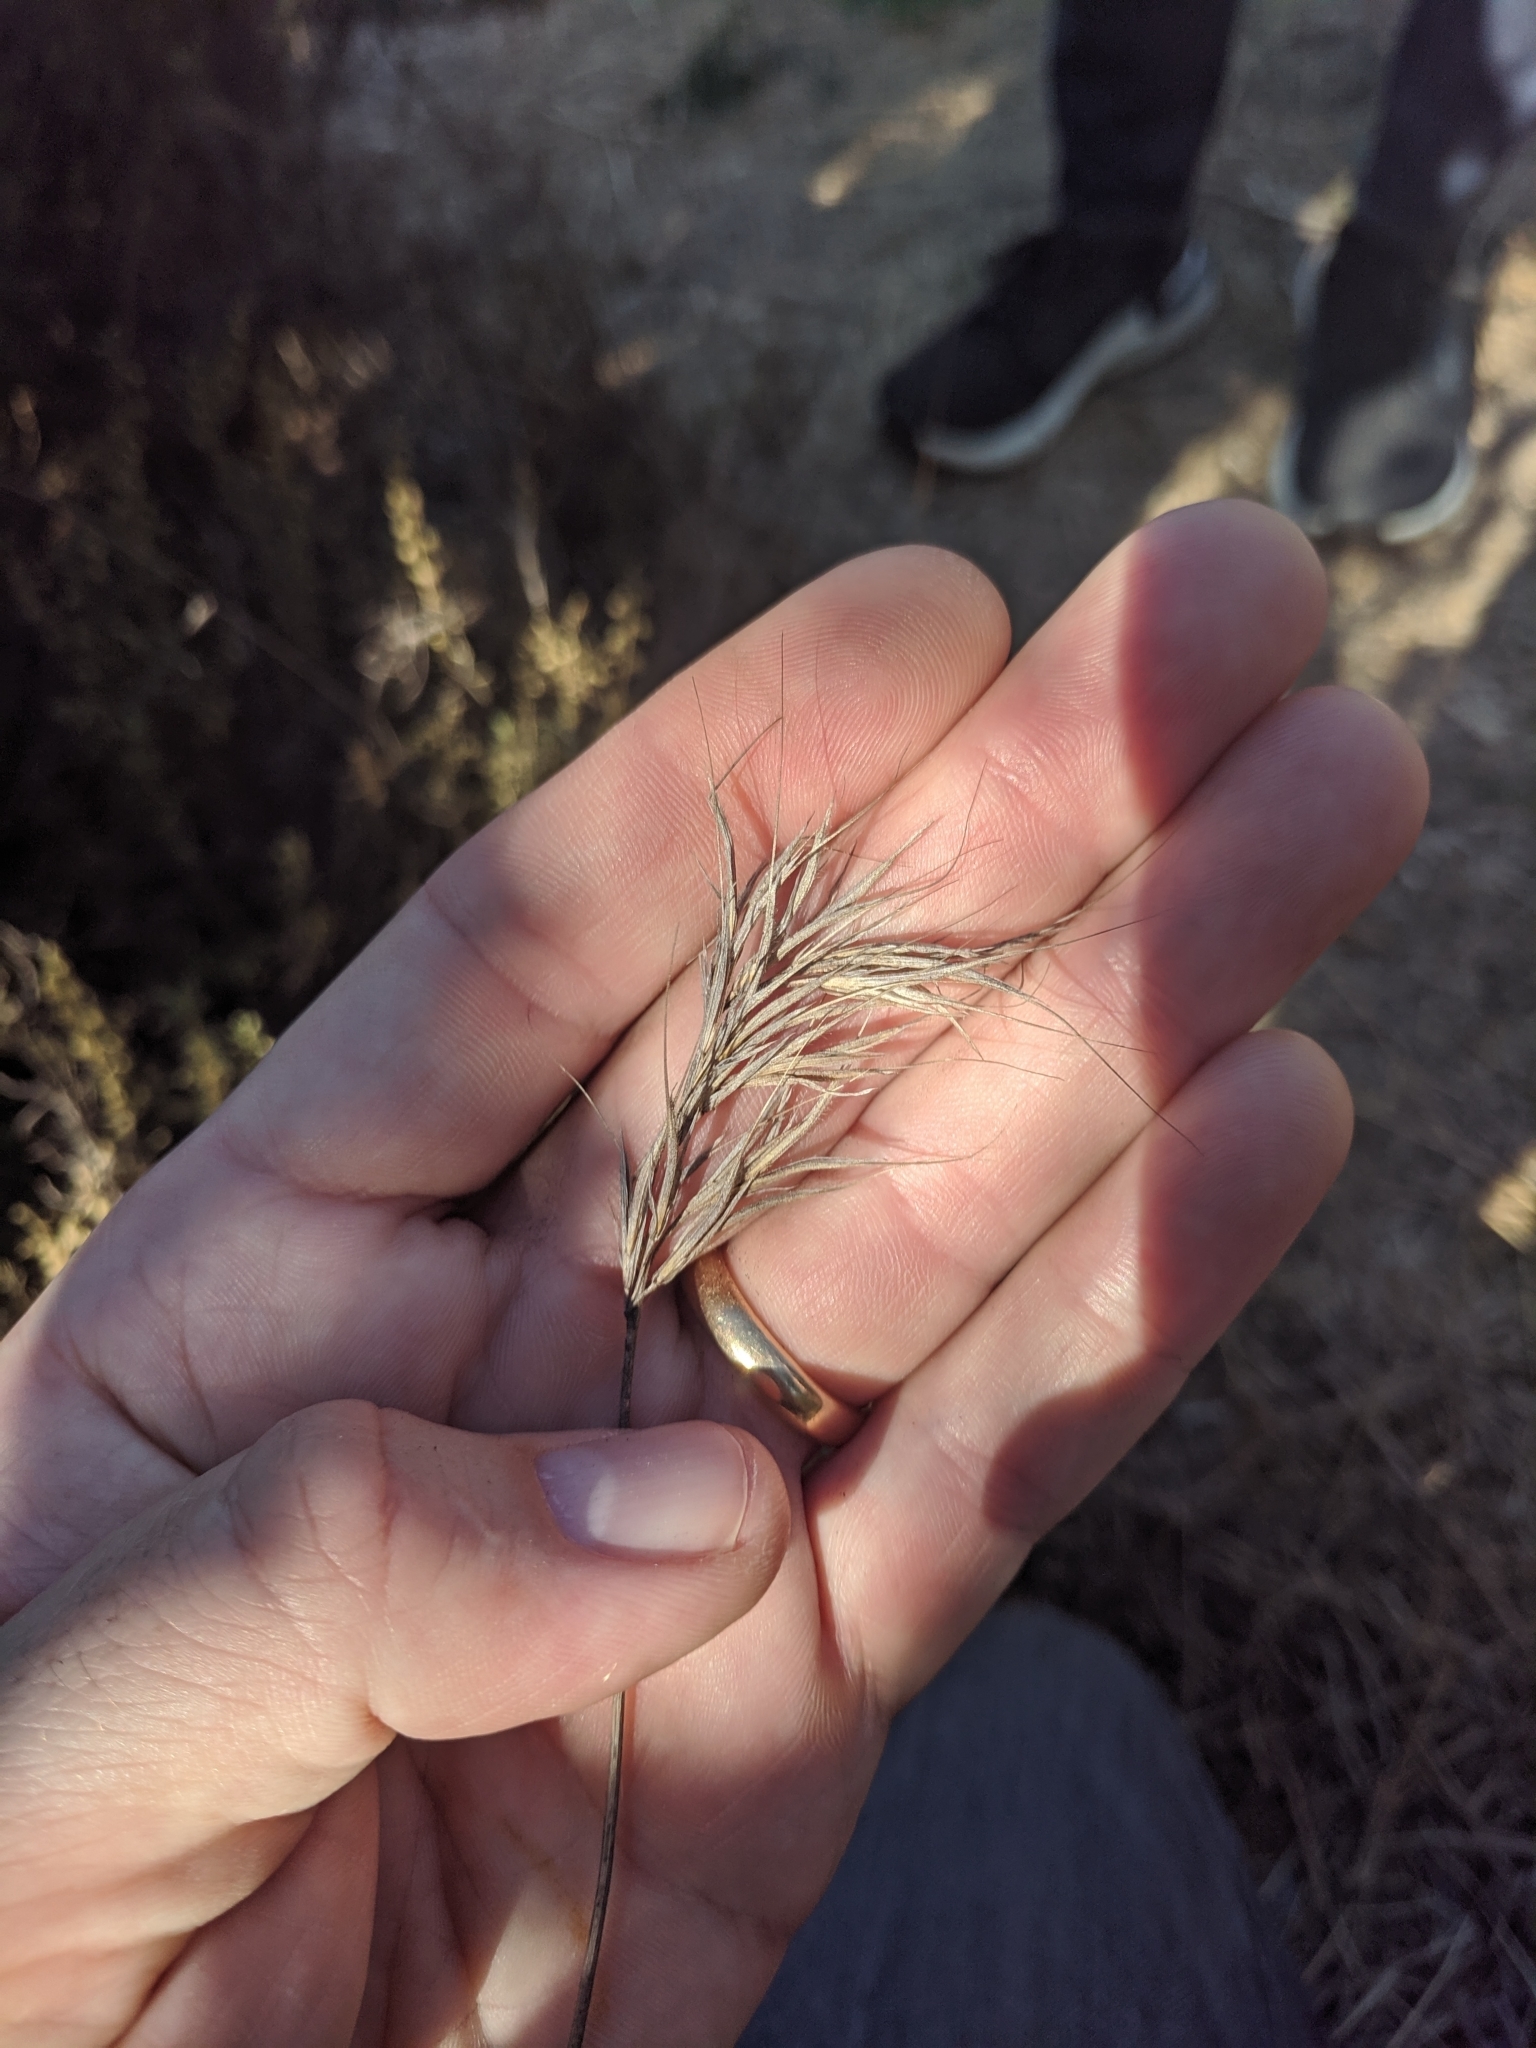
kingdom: Plantae
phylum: Tracheophyta
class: Liliopsida
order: Poales
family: Poaceae
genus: Bromus
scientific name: Bromus madritensis
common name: Compact brome
